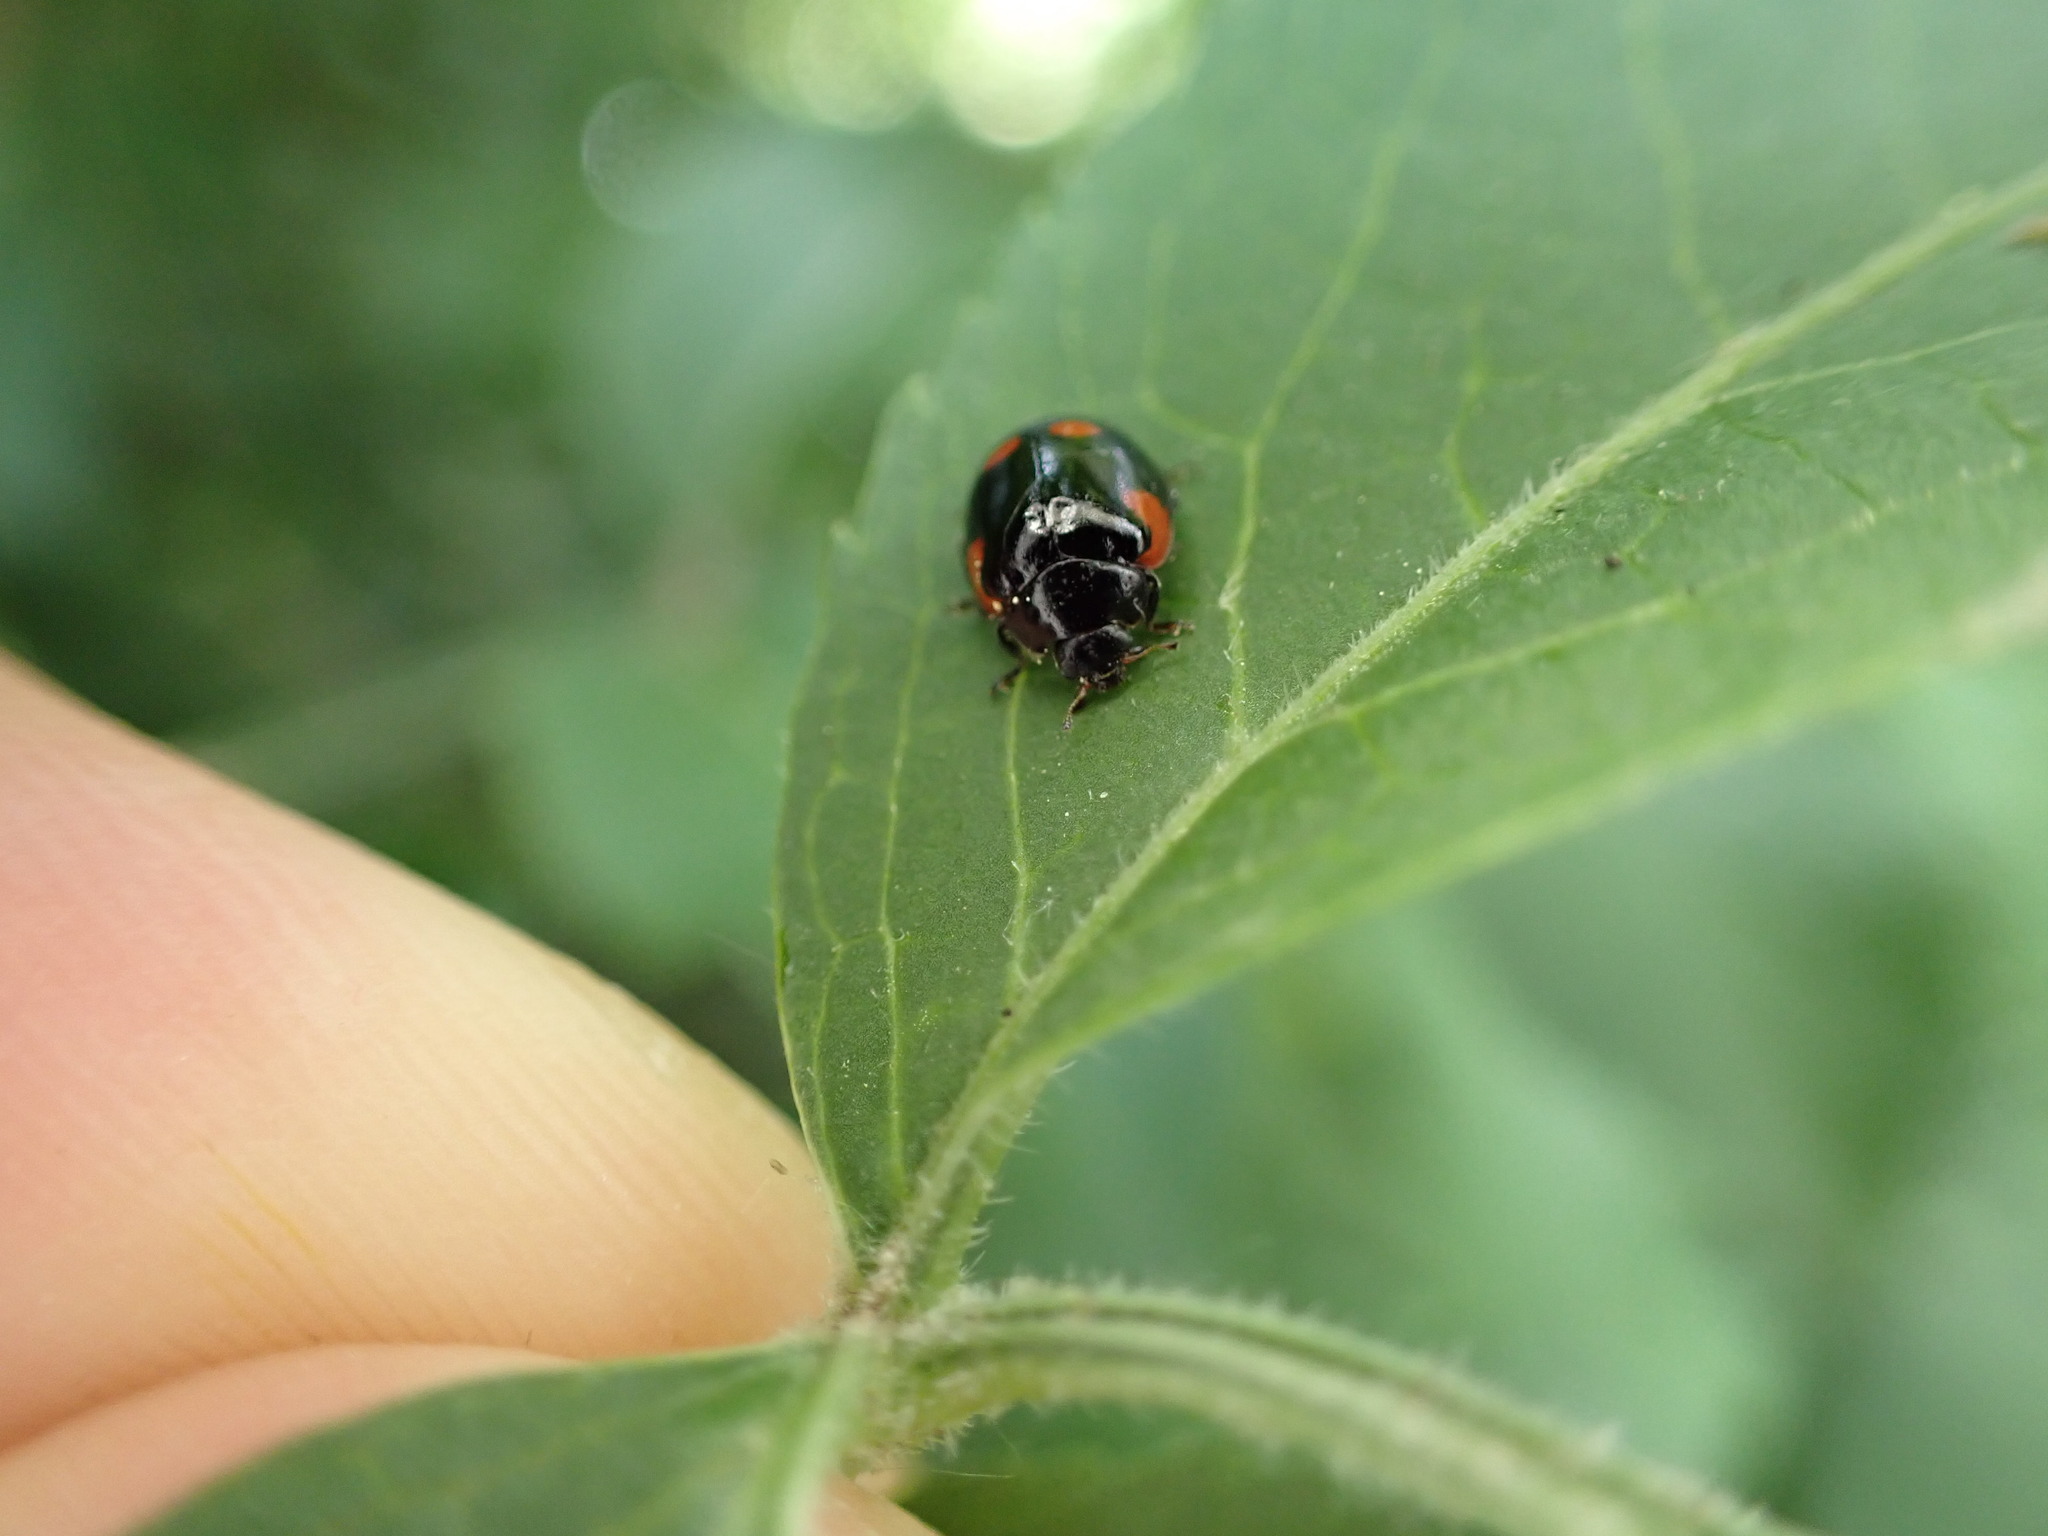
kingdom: Animalia
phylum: Arthropoda
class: Insecta
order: Coleoptera
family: Coccinellidae
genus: Adalia
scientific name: Adalia bipunctata
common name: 2-spot ladybird
